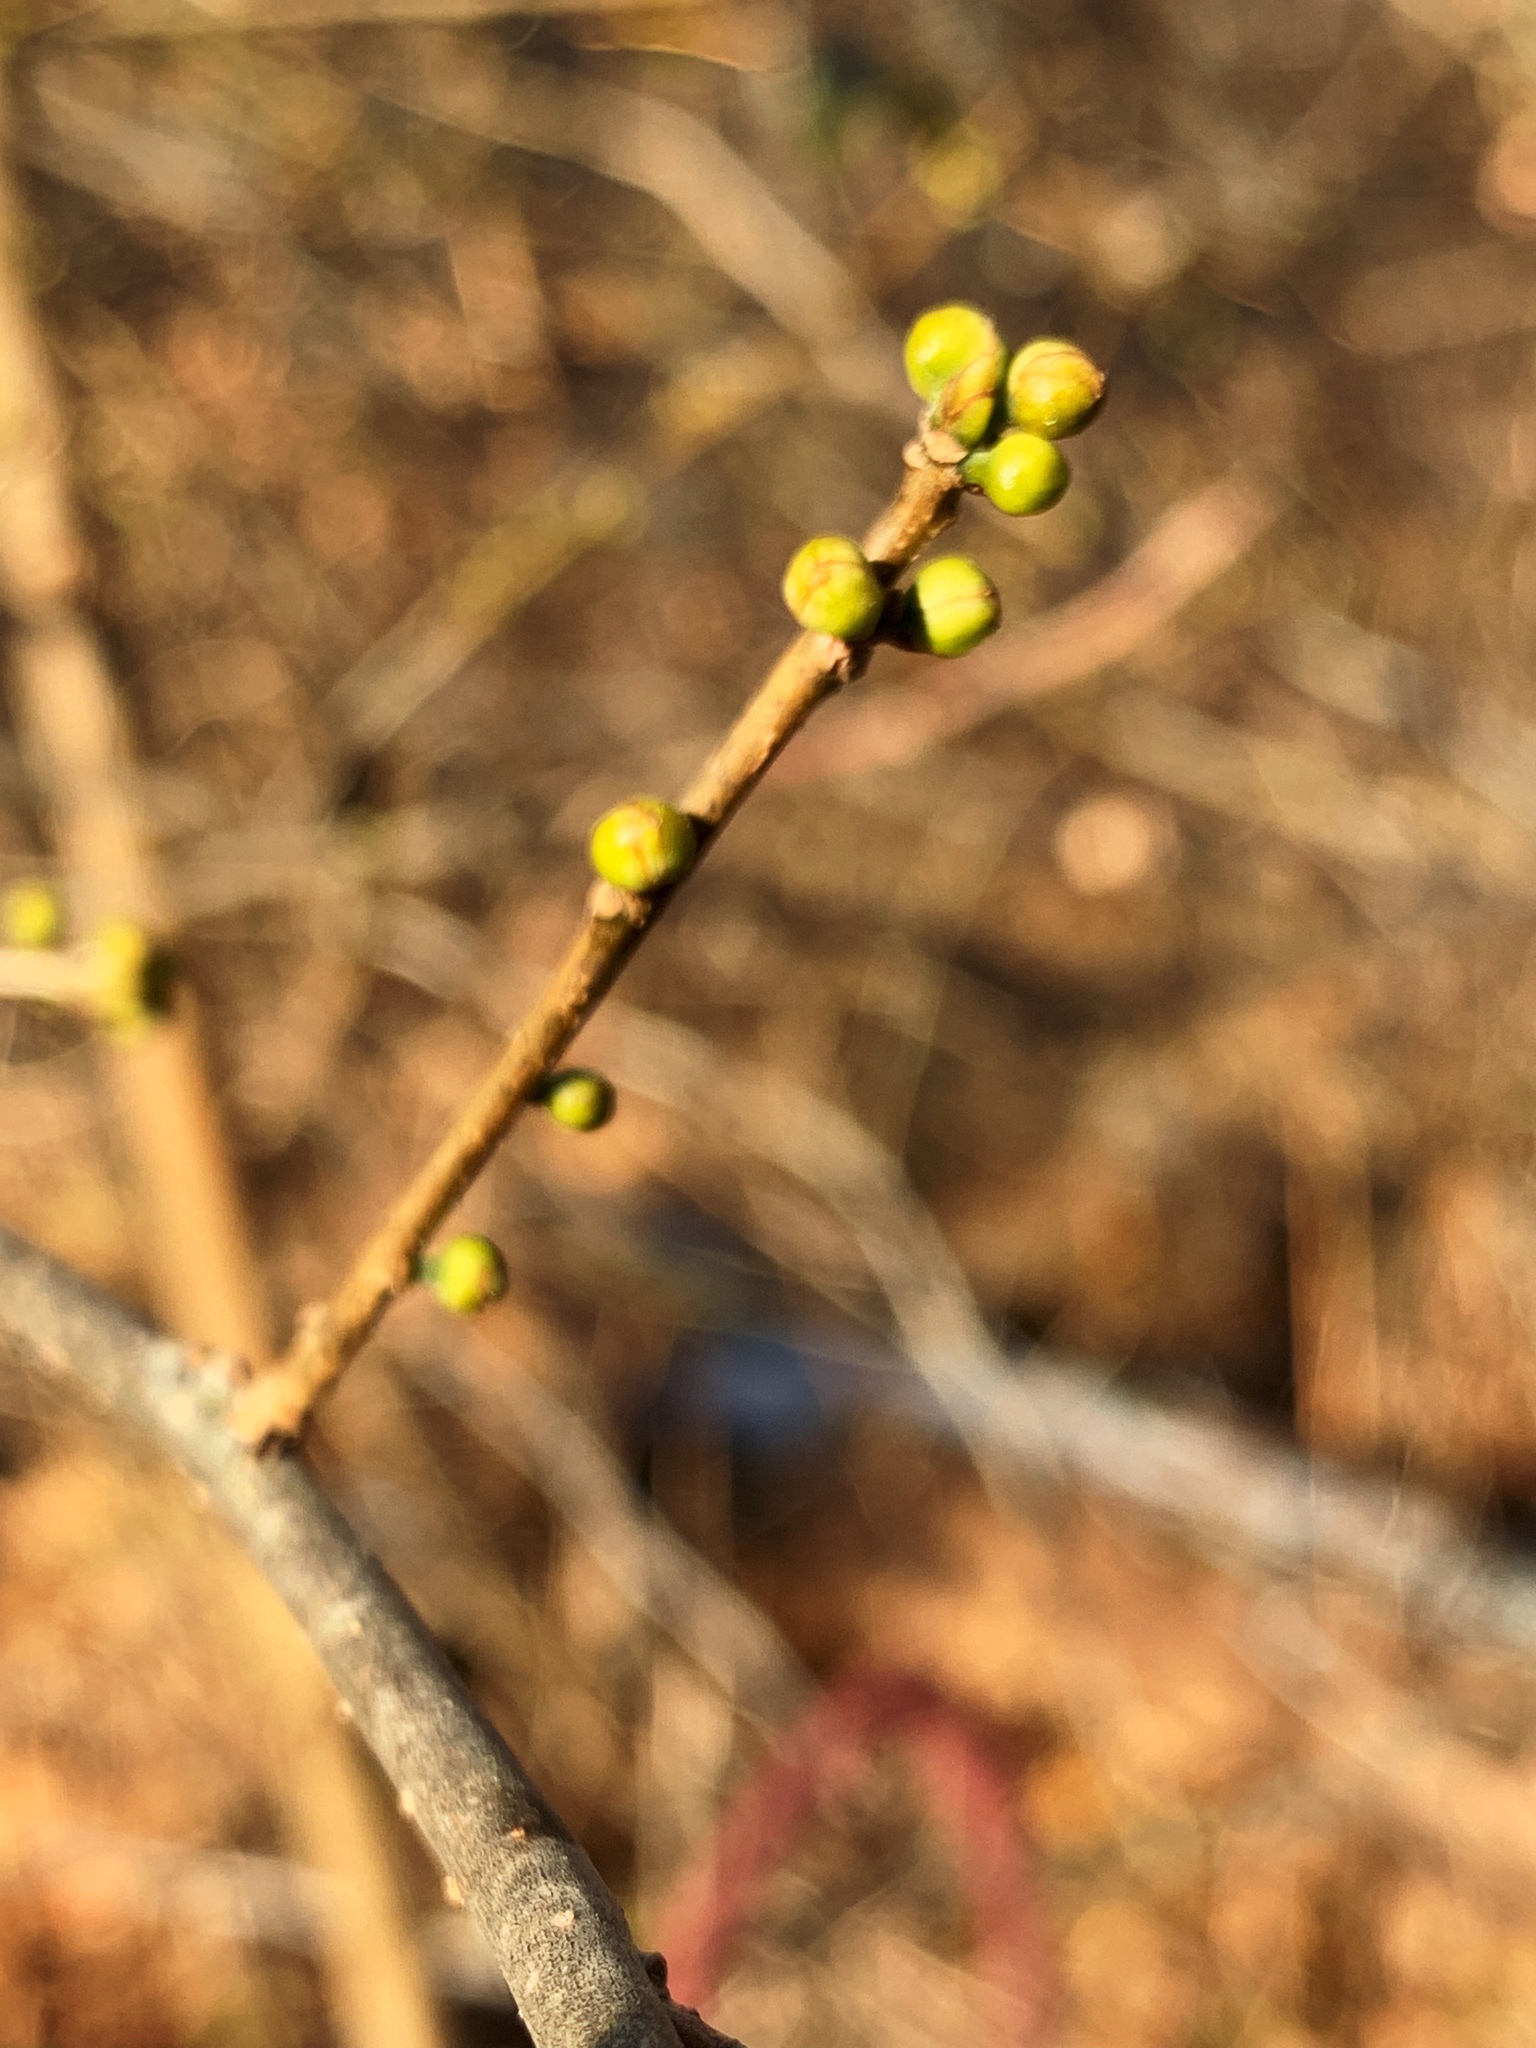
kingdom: Plantae
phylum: Tracheophyta
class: Magnoliopsida
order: Laurales
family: Lauraceae
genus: Lindera
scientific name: Lindera benzoin
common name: Spicebush
